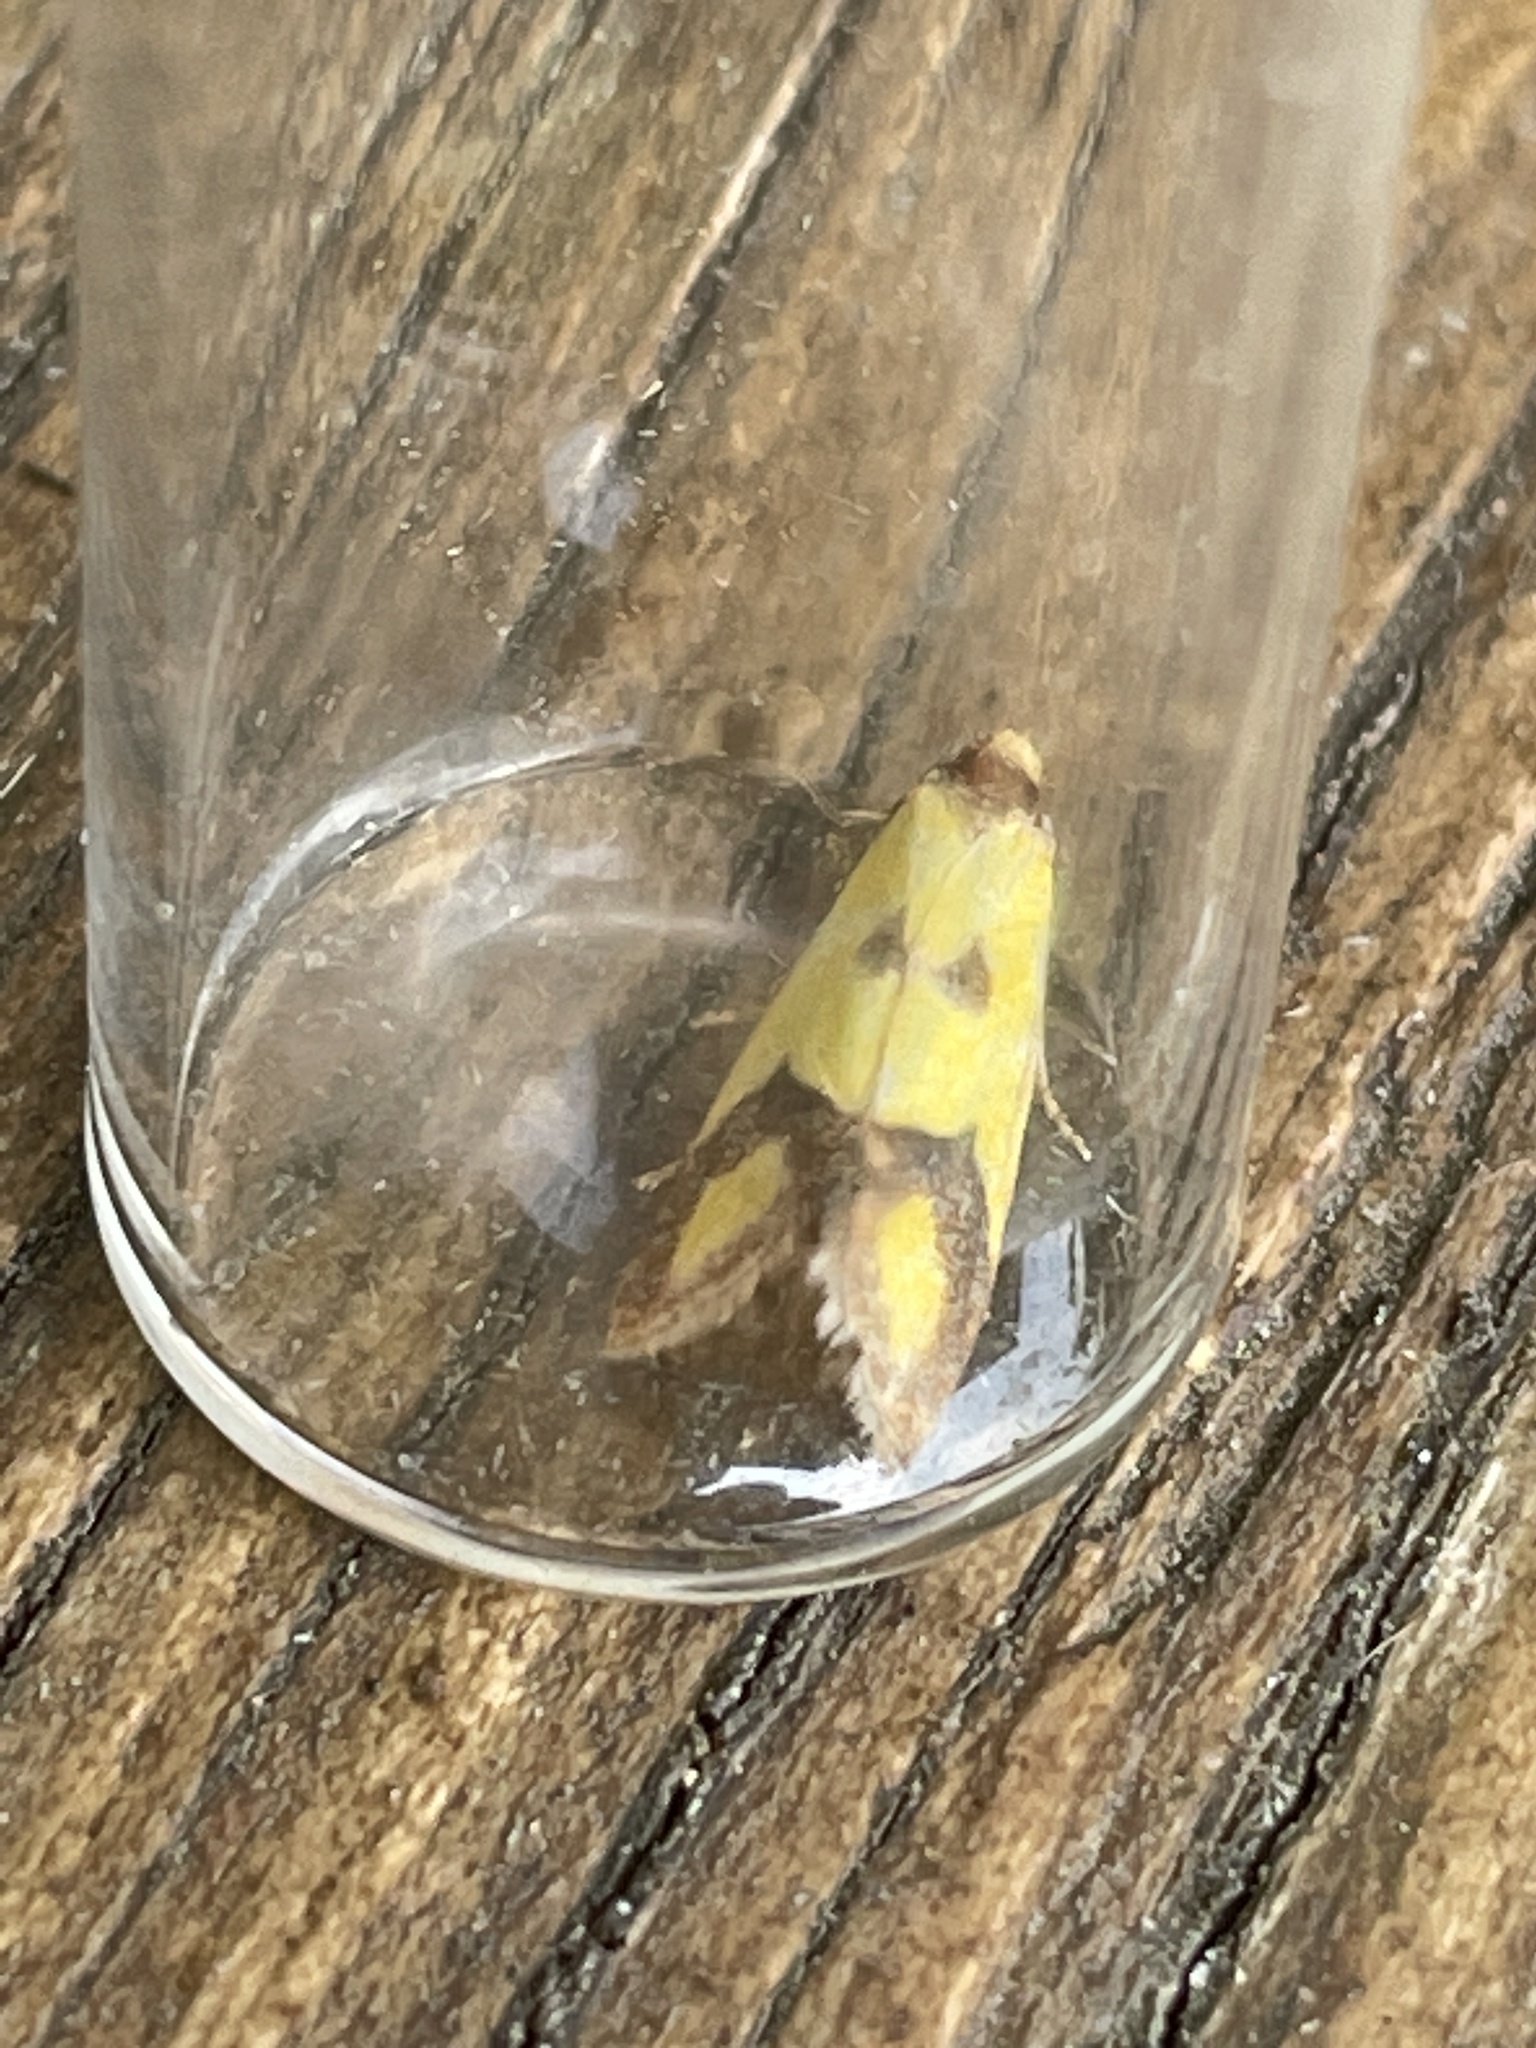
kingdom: Animalia
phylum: Arthropoda
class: Insecta
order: Lepidoptera
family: Tortricidae
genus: Agapeta
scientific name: Agapeta zoegana
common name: Sulfur knapweed root moth
